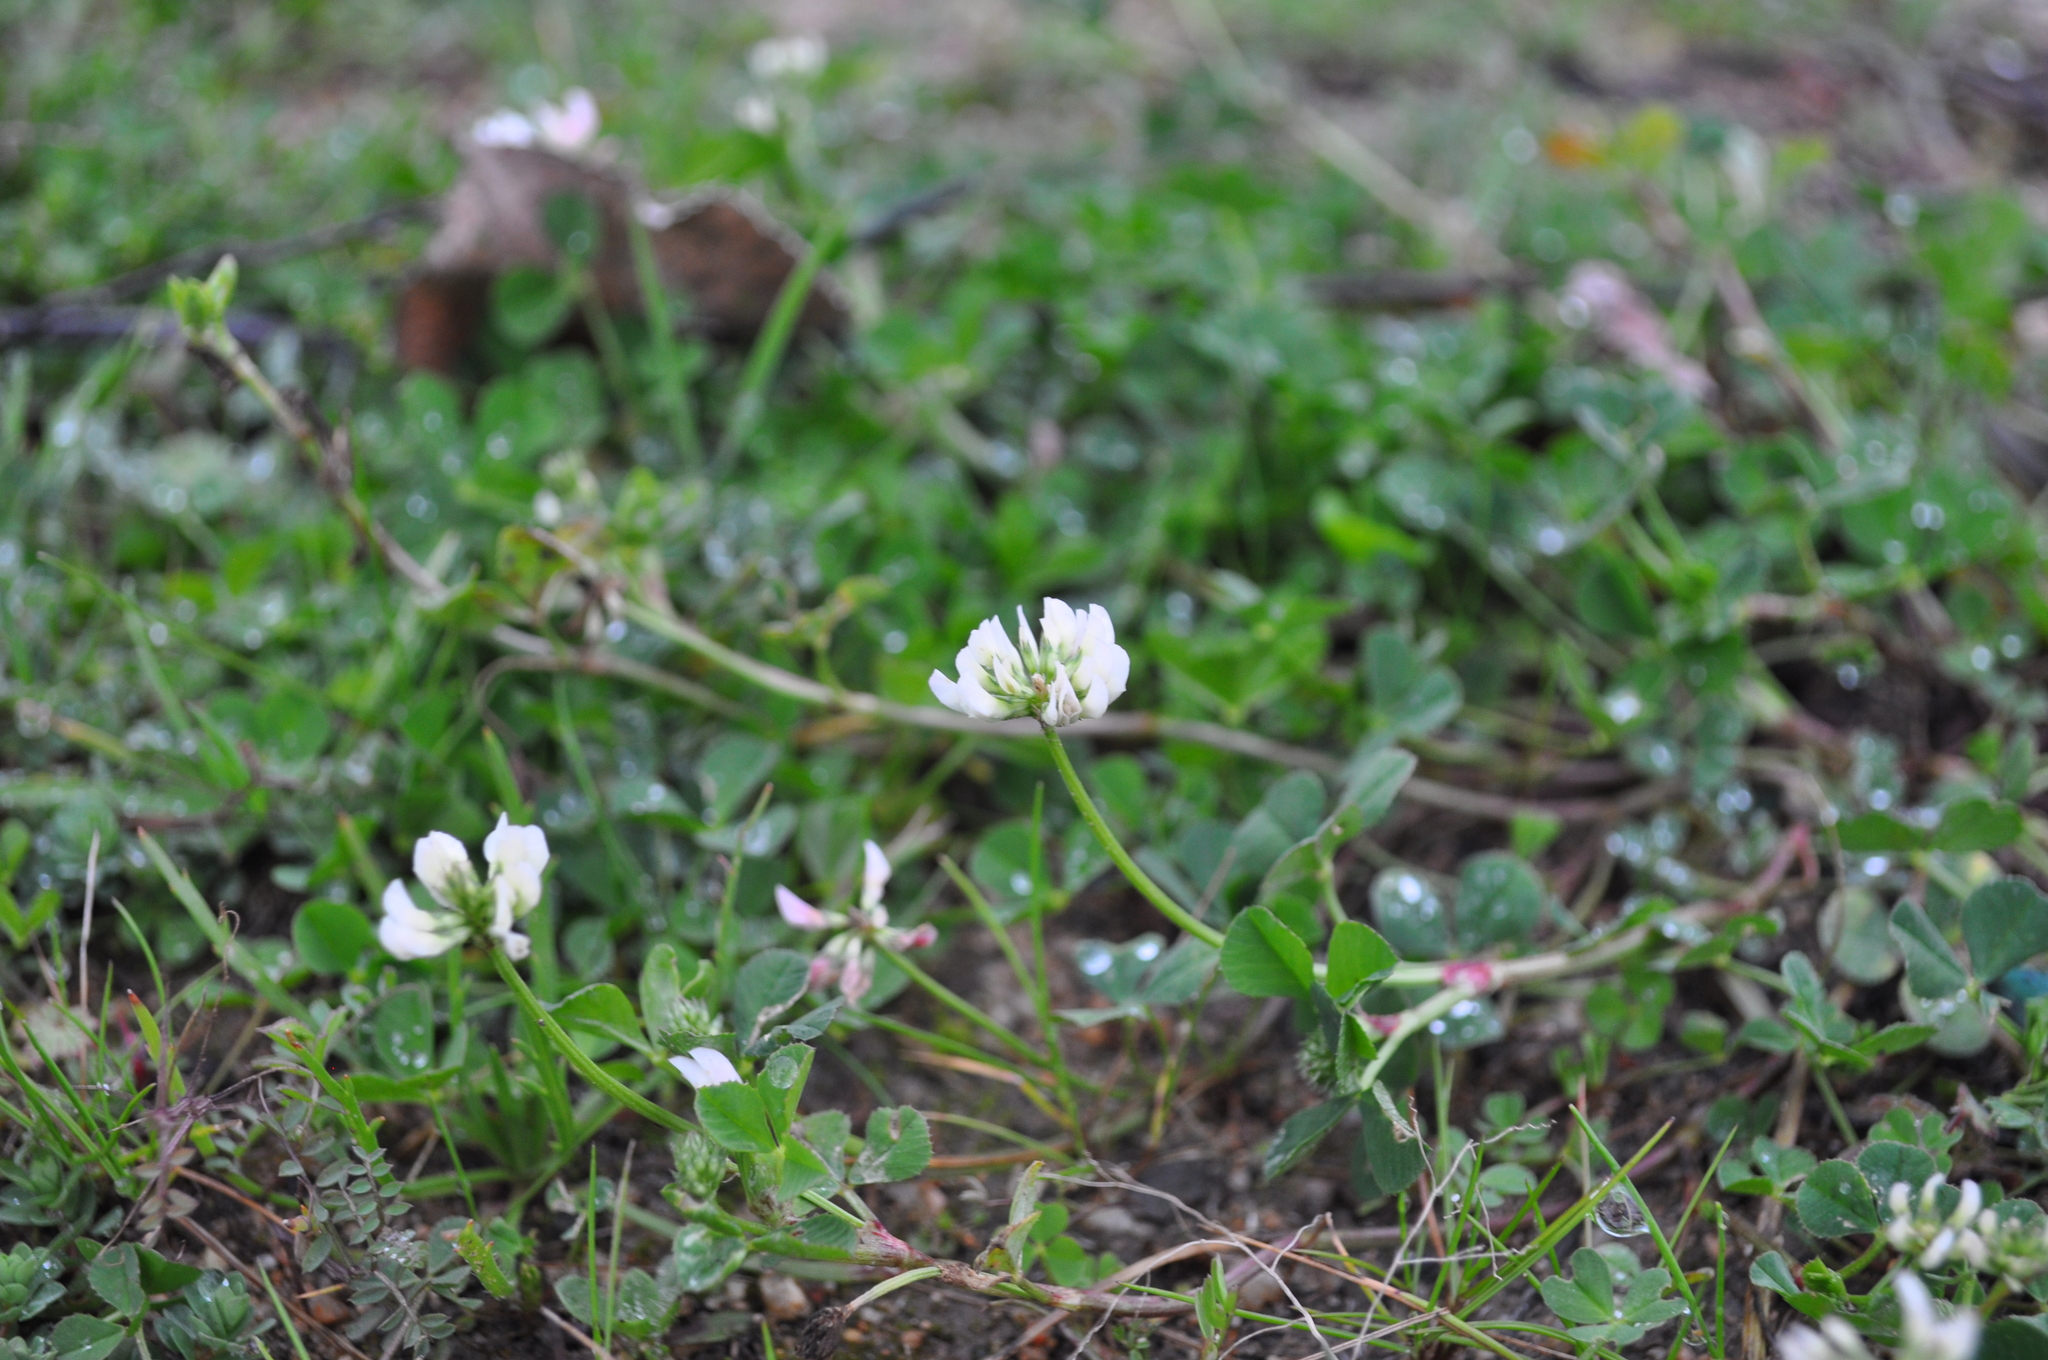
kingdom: Plantae
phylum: Tracheophyta
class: Magnoliopsida
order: Fabales
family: Fabaceae
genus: Trifolium
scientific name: Trifolium nigrescens
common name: Small white clover
